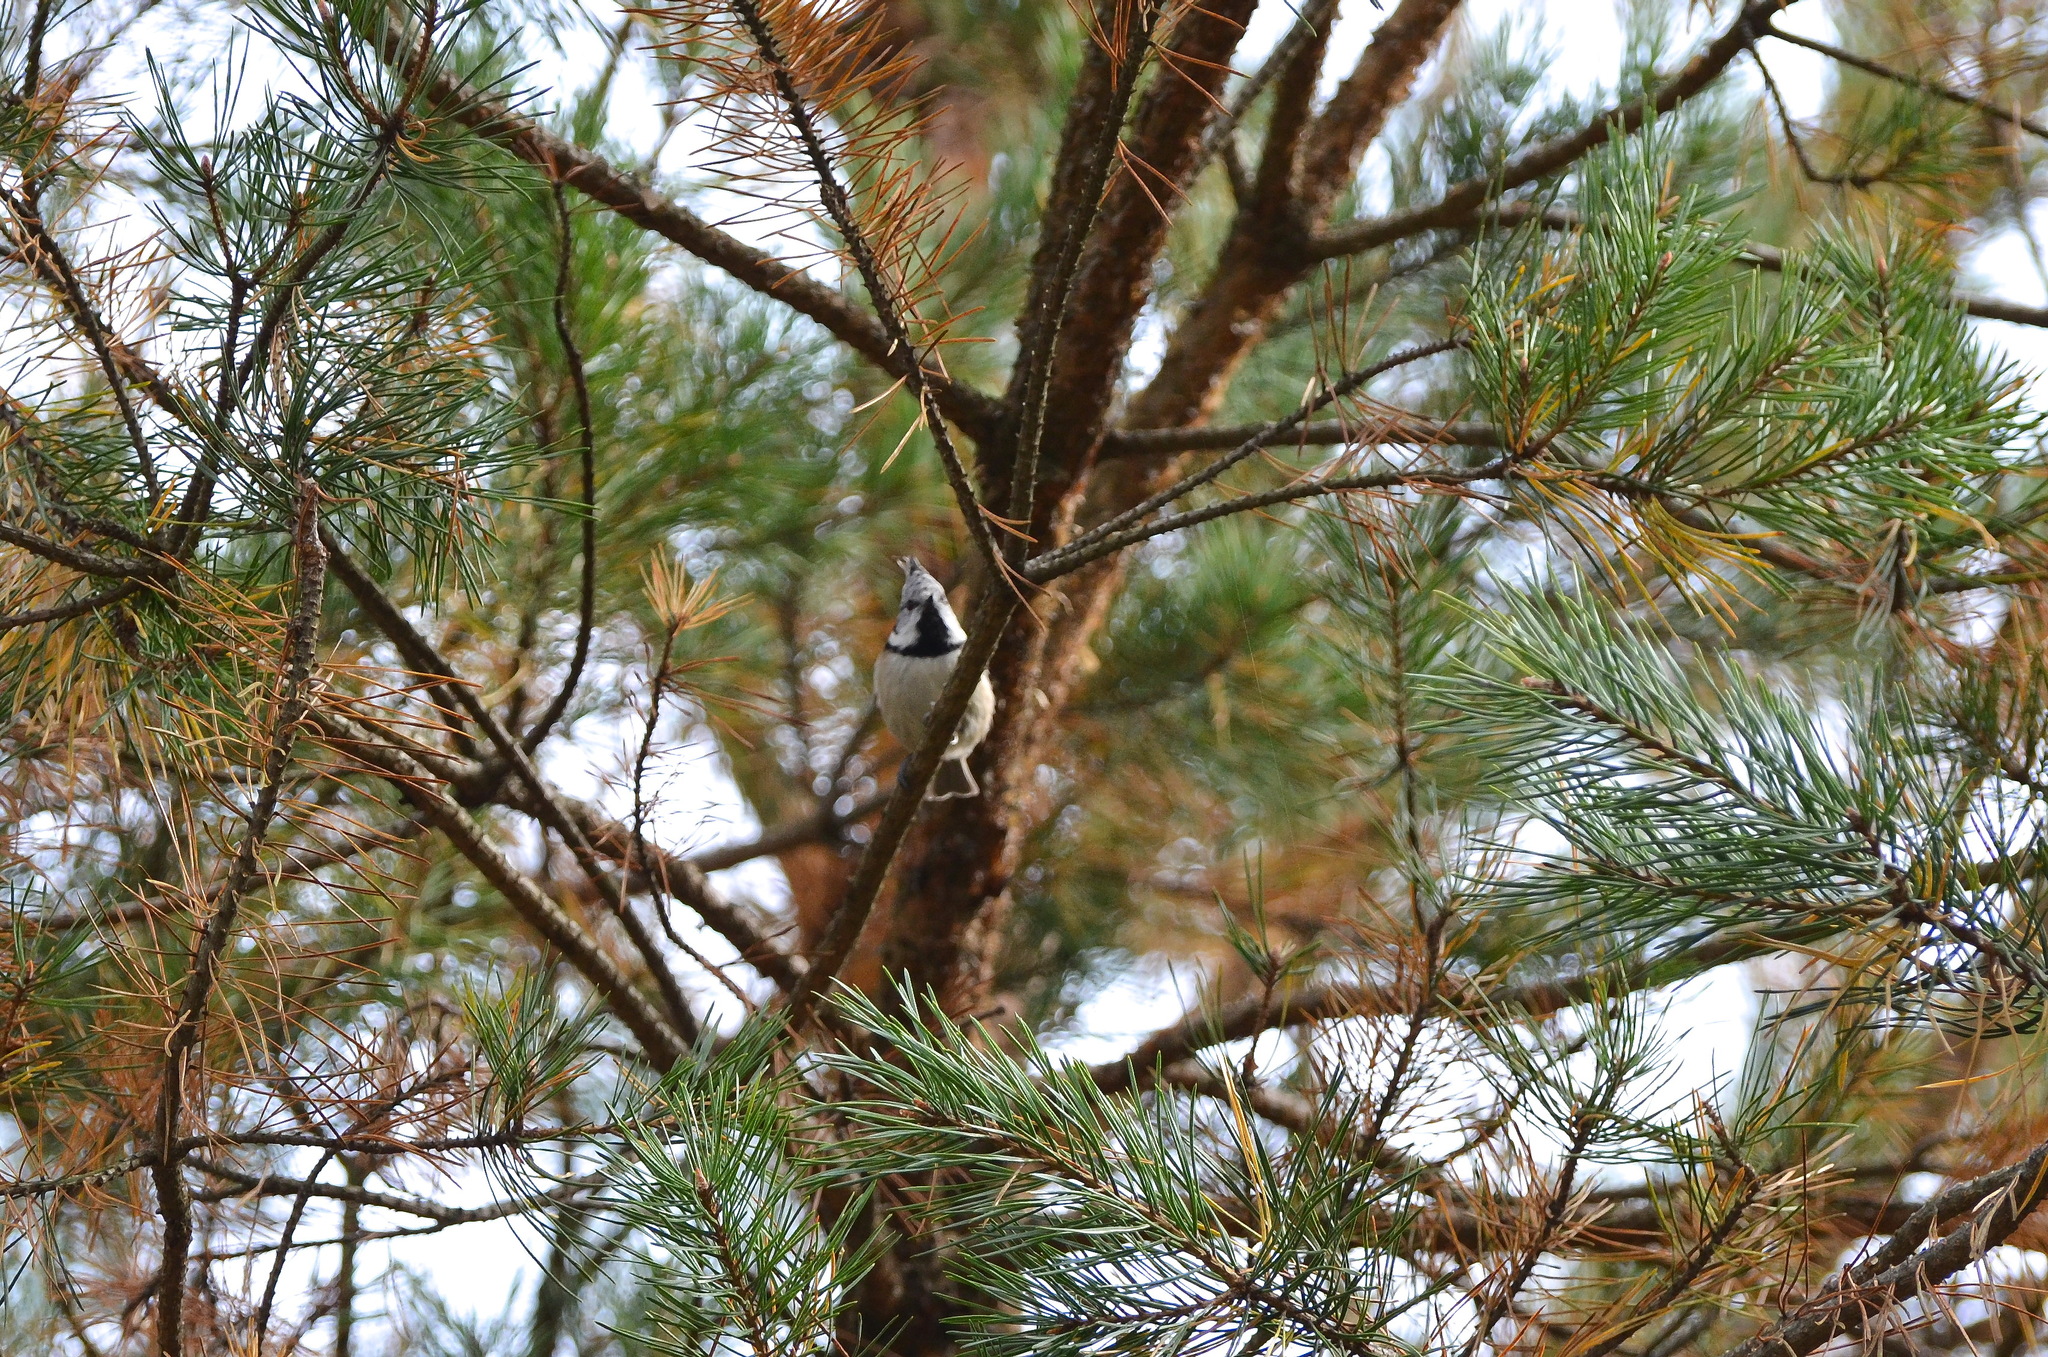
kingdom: Animalia
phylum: Chordata
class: Aves
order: Passeriformes
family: Paridae
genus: Lophophanes
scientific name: Lophophanes cristatus
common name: European crested tit
